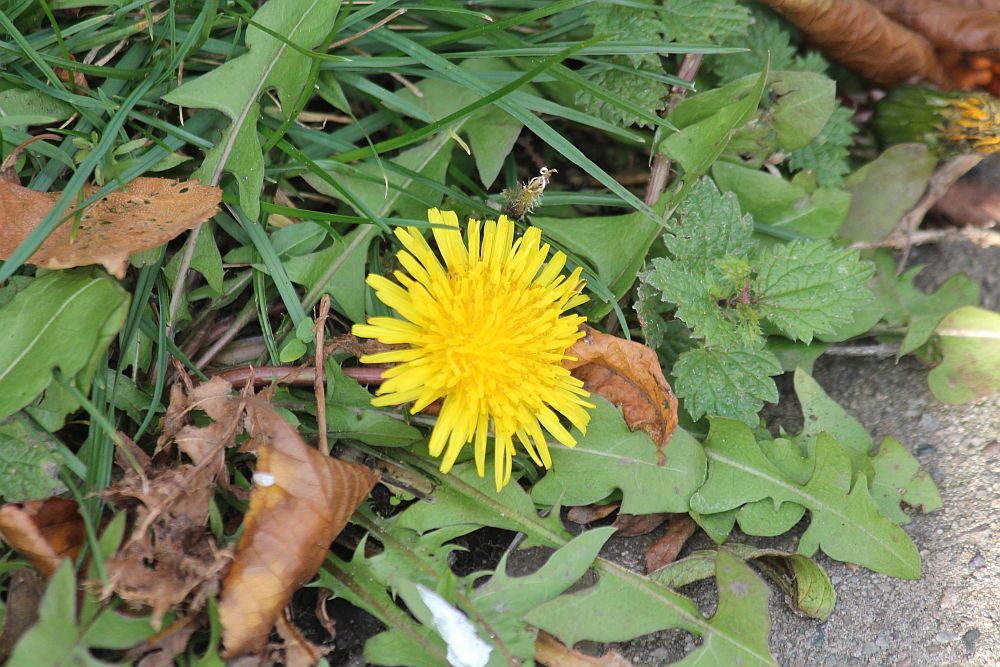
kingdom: Plantae
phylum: Tracheophyta
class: Magnoliopsida
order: Asterales
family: Asteraceae
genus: Taraxacum
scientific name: Taraxacum officinale
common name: Common dandelion
